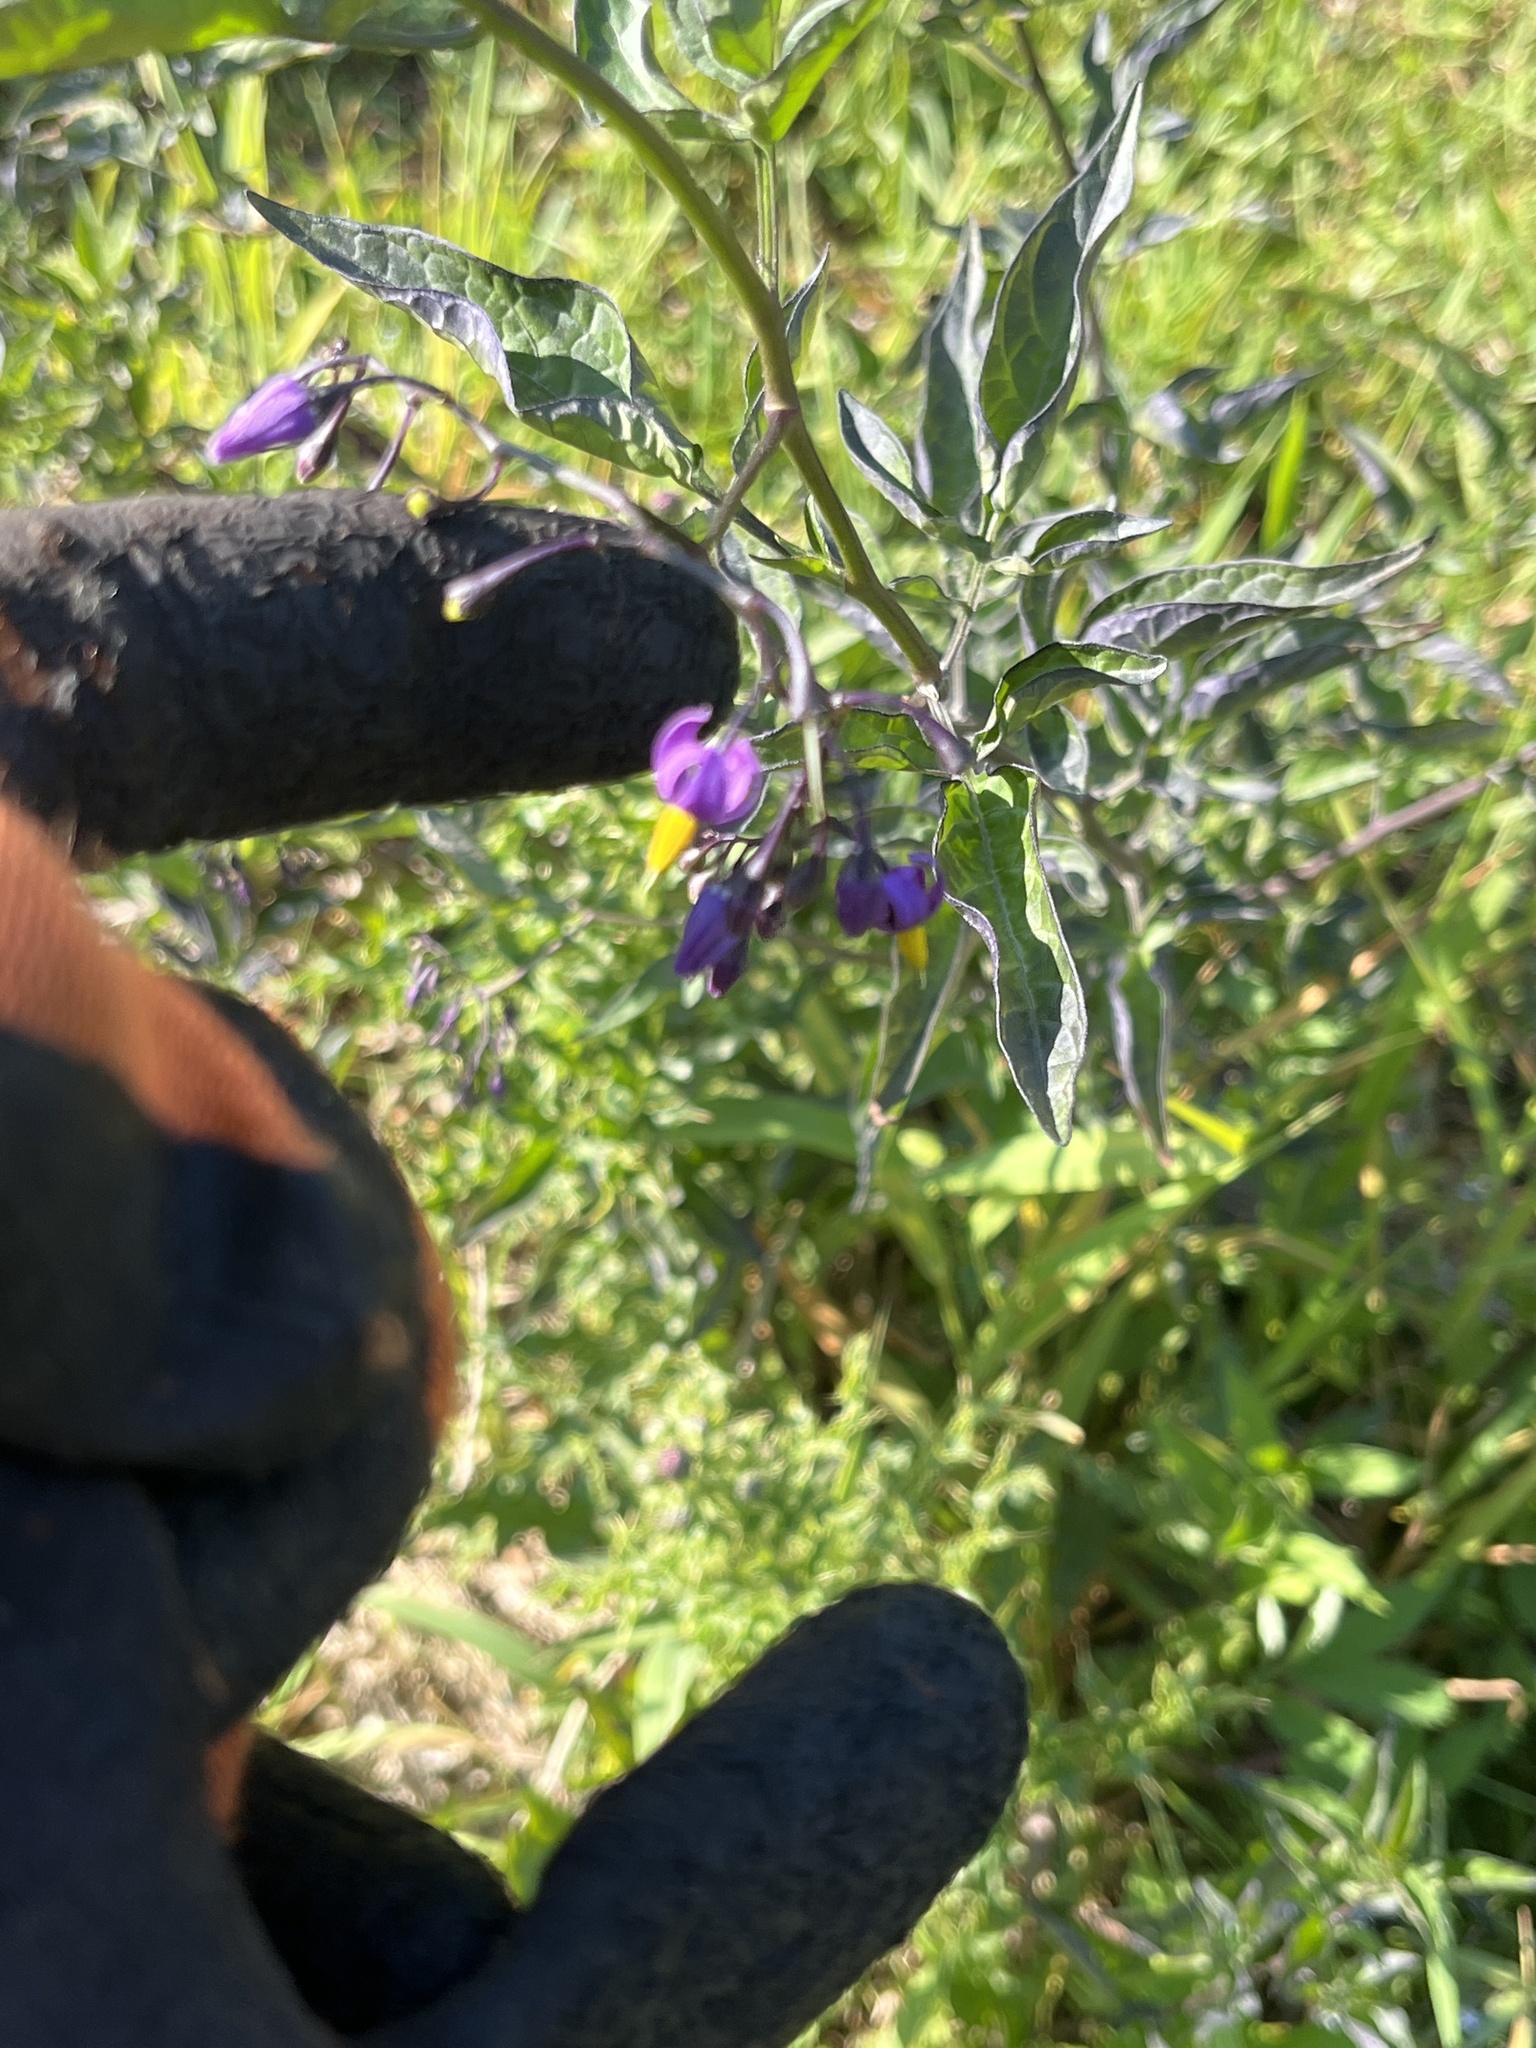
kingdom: Plantae
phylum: Tracheophyta
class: Magnoliopsida
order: Solanales
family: Solanaceae
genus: Solanum
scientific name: Solanum dulcamara
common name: Climbing nightshade
